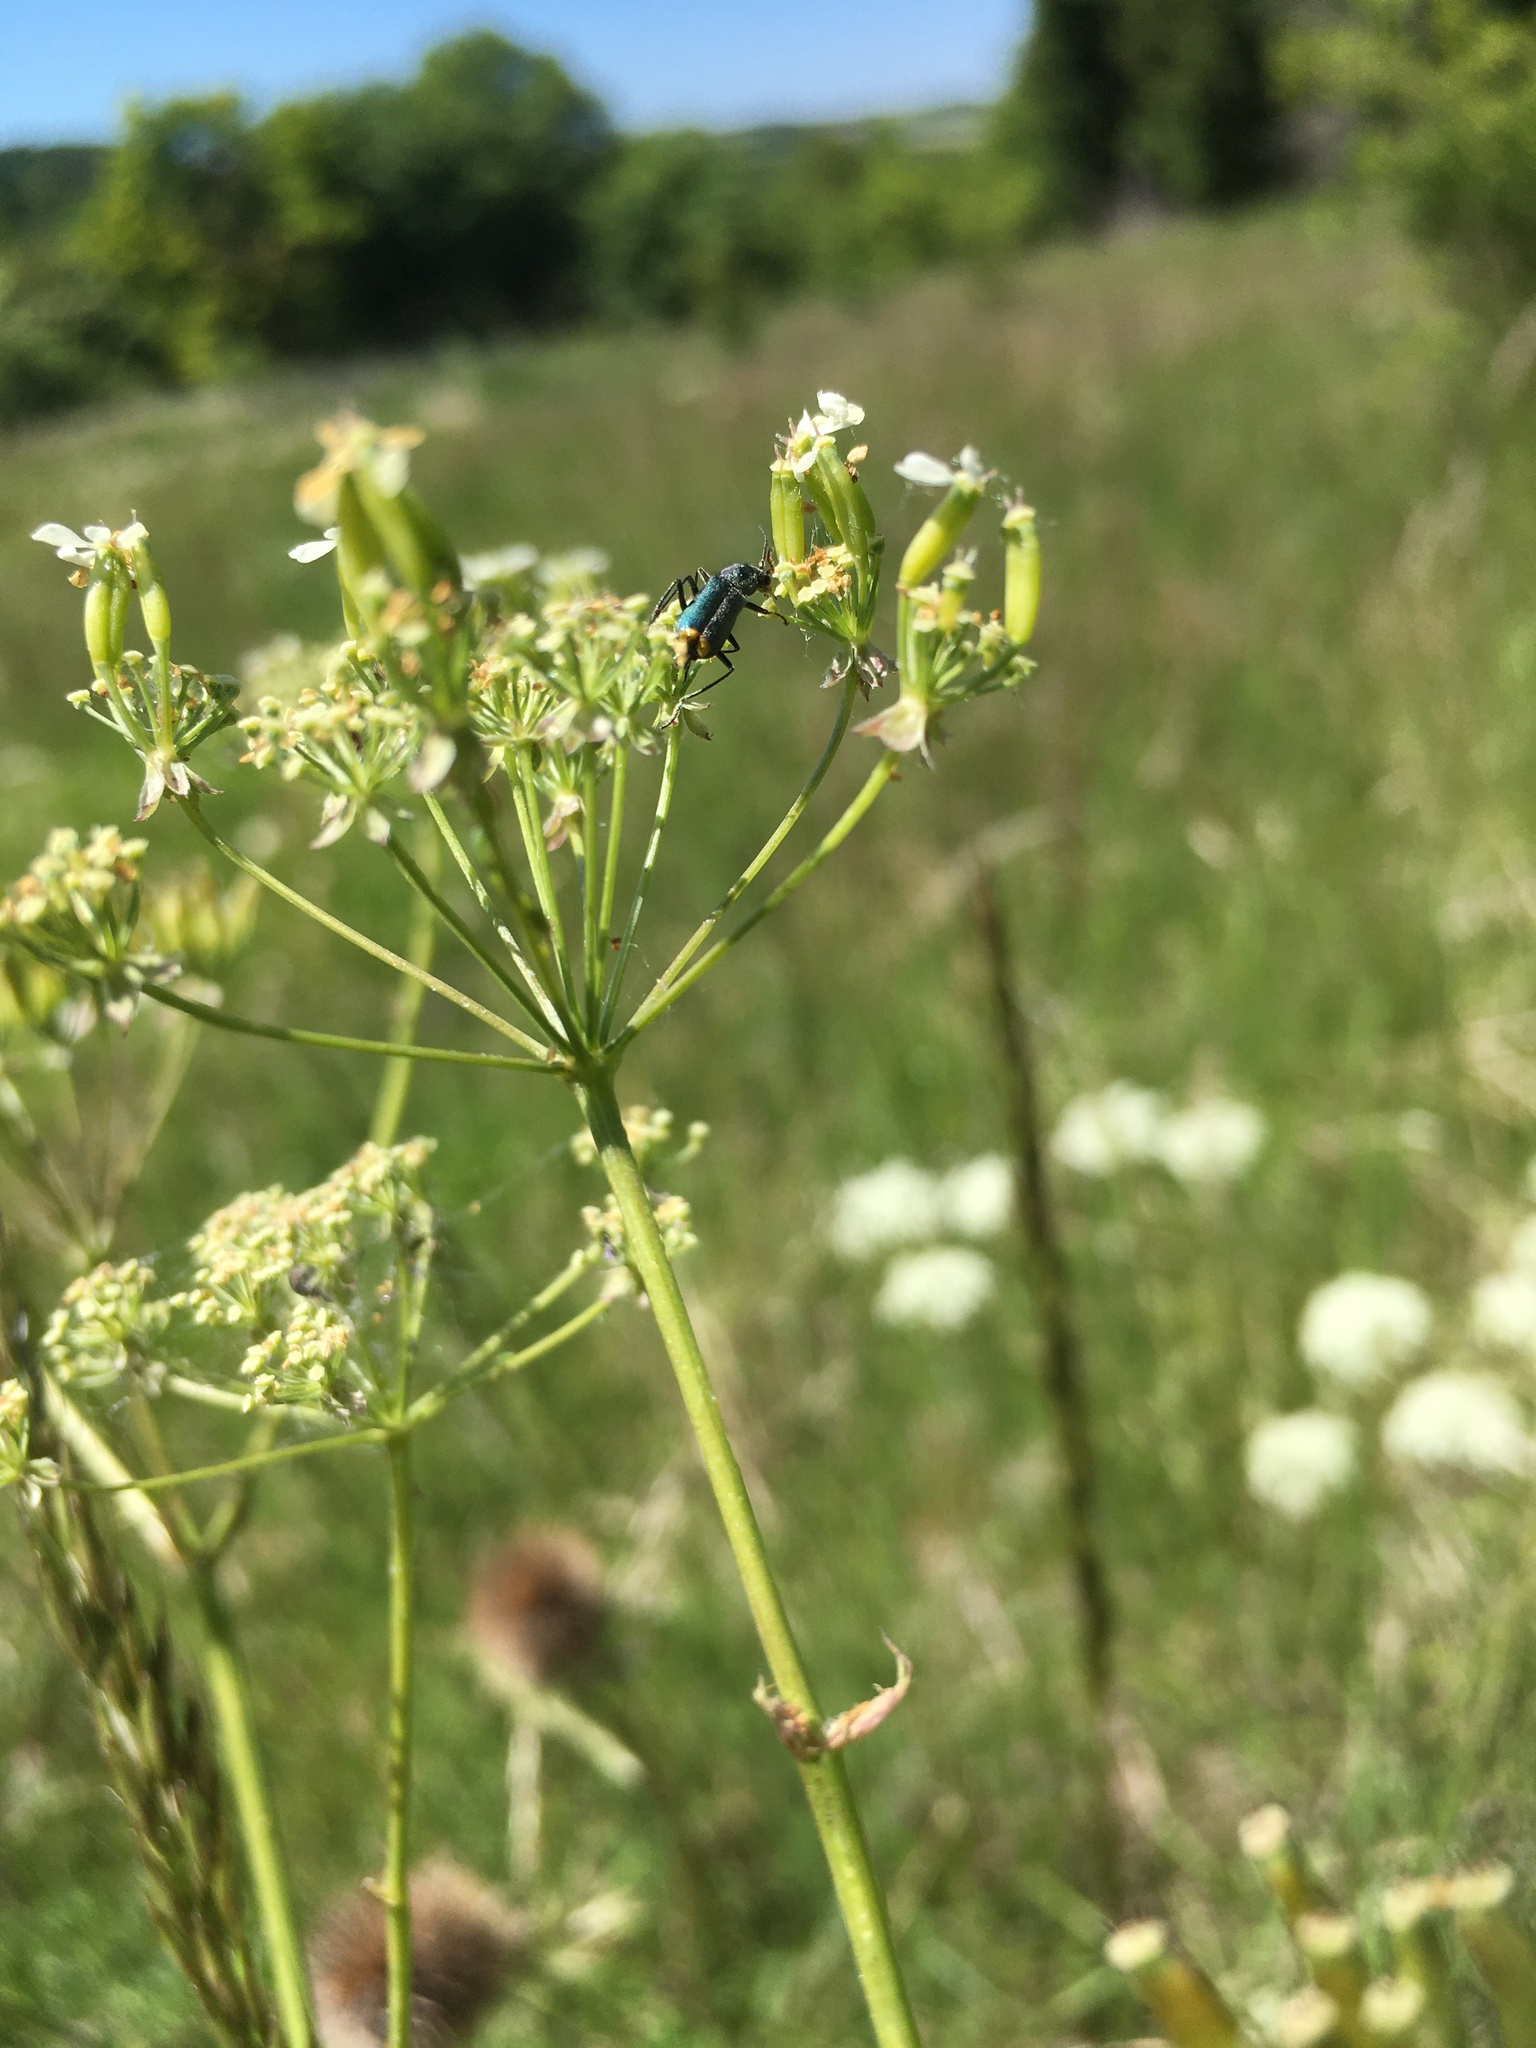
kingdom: Animalia
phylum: Arthropoda
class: Insecta
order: Coleoptera
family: Malachiidae
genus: Clanoptilus
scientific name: Clanoptilus marginellus
